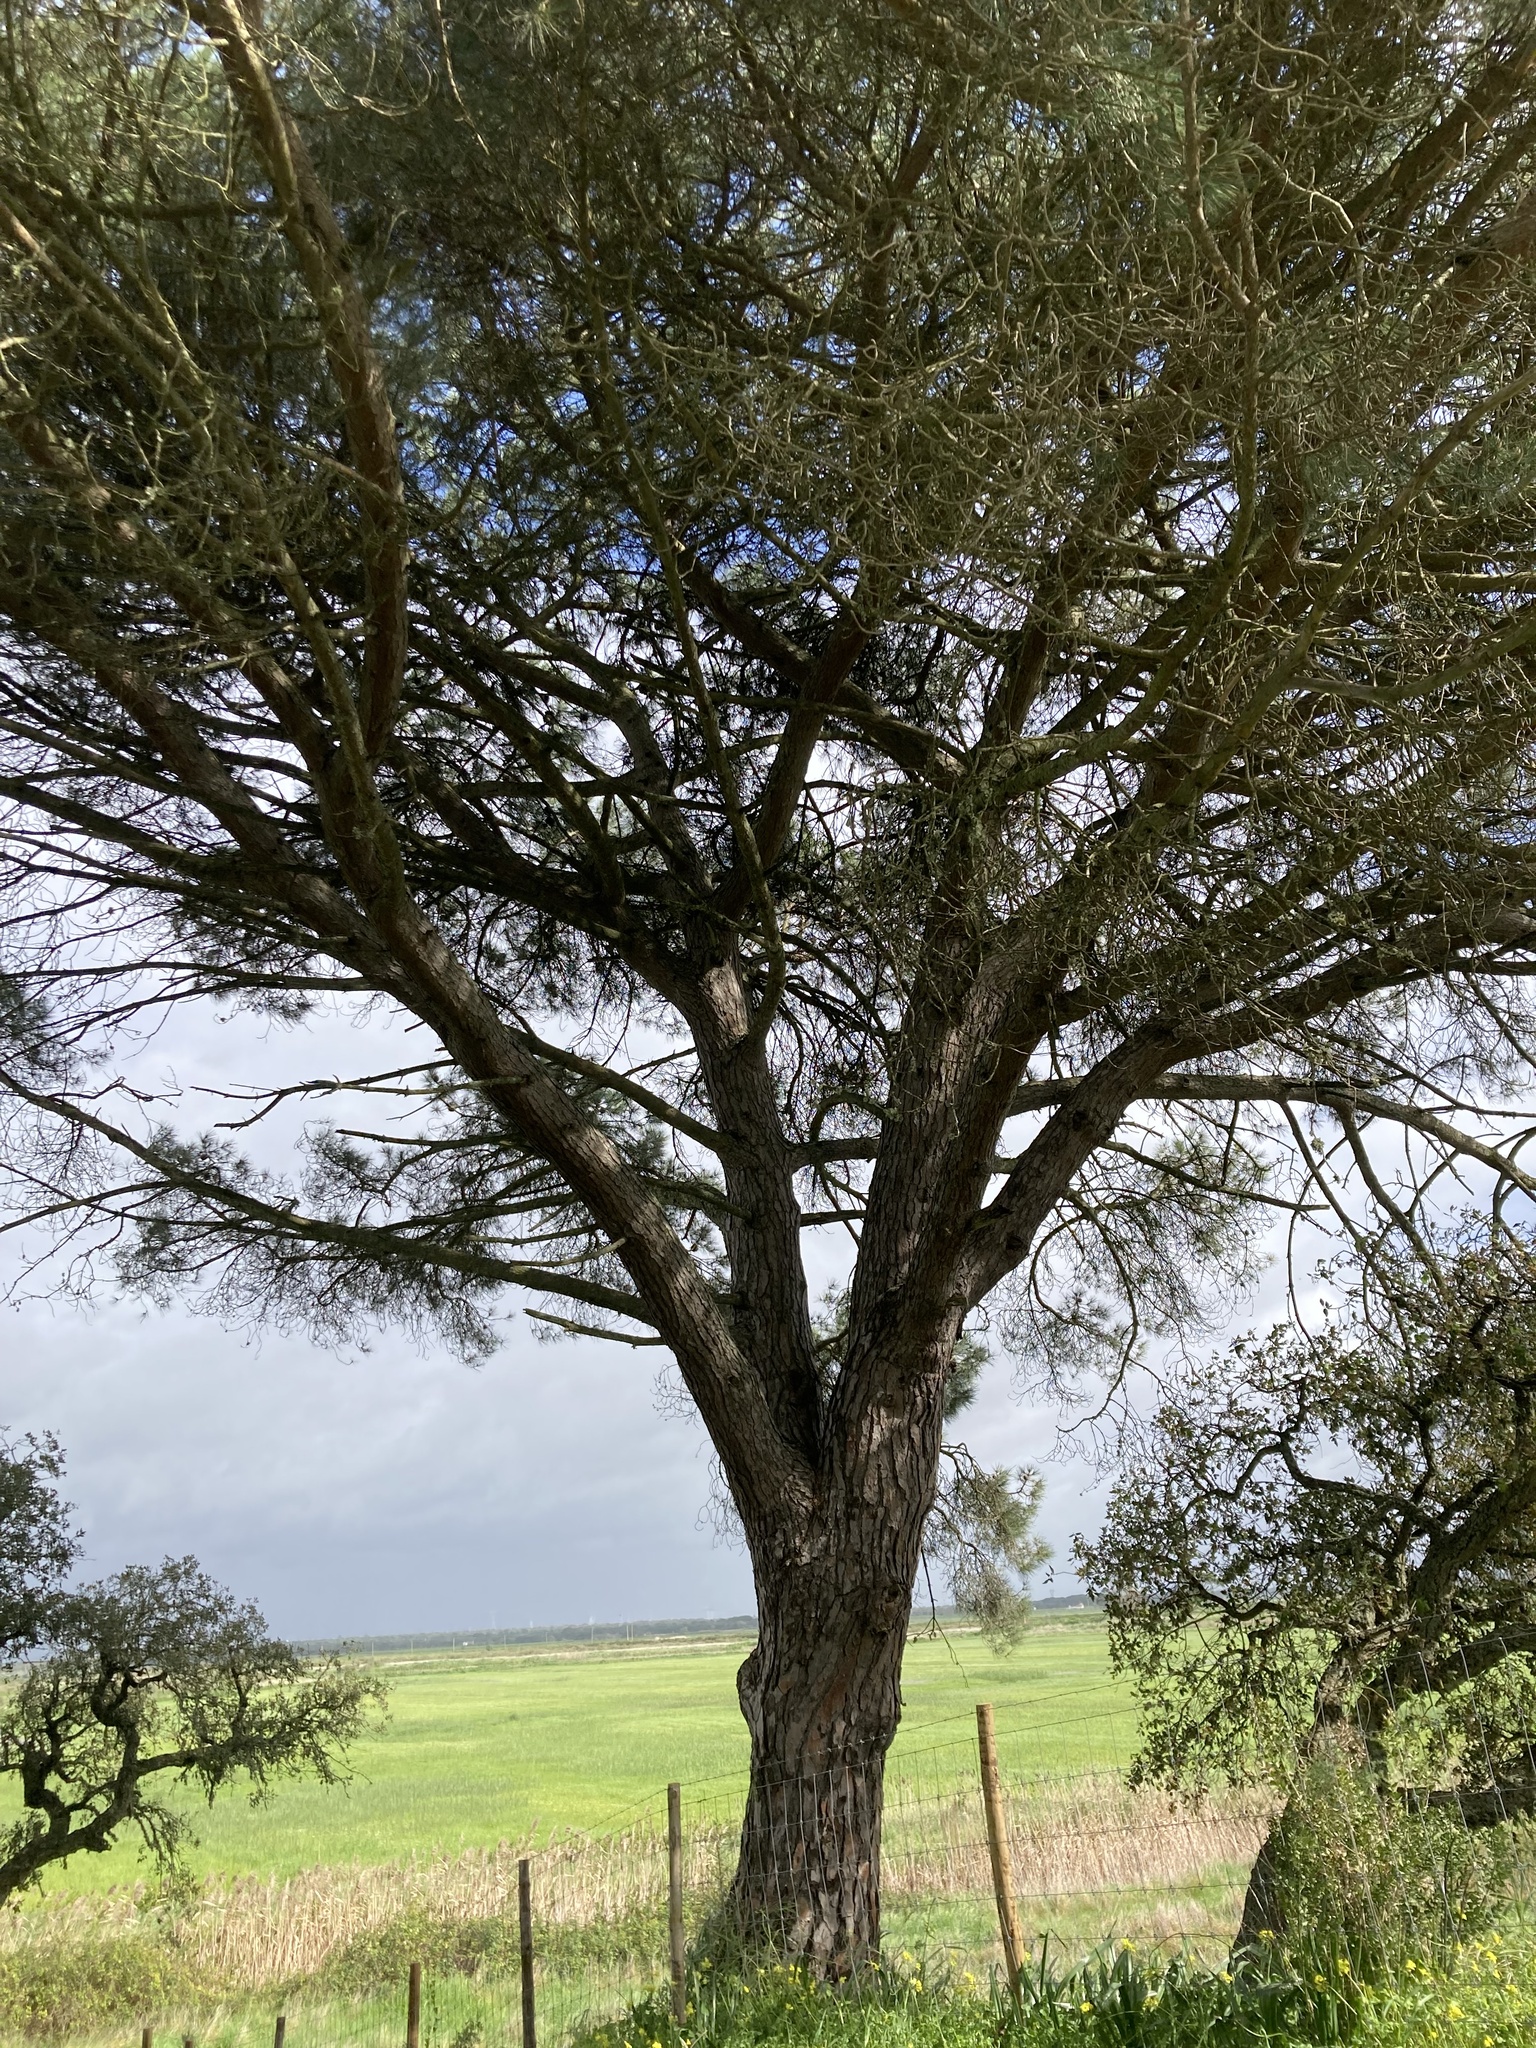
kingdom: Plantae
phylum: Tracheophyta
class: Pinopsida
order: Pinales
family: Pinaceae
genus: Pinus
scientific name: Pinus pinea
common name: Italian stone pine
